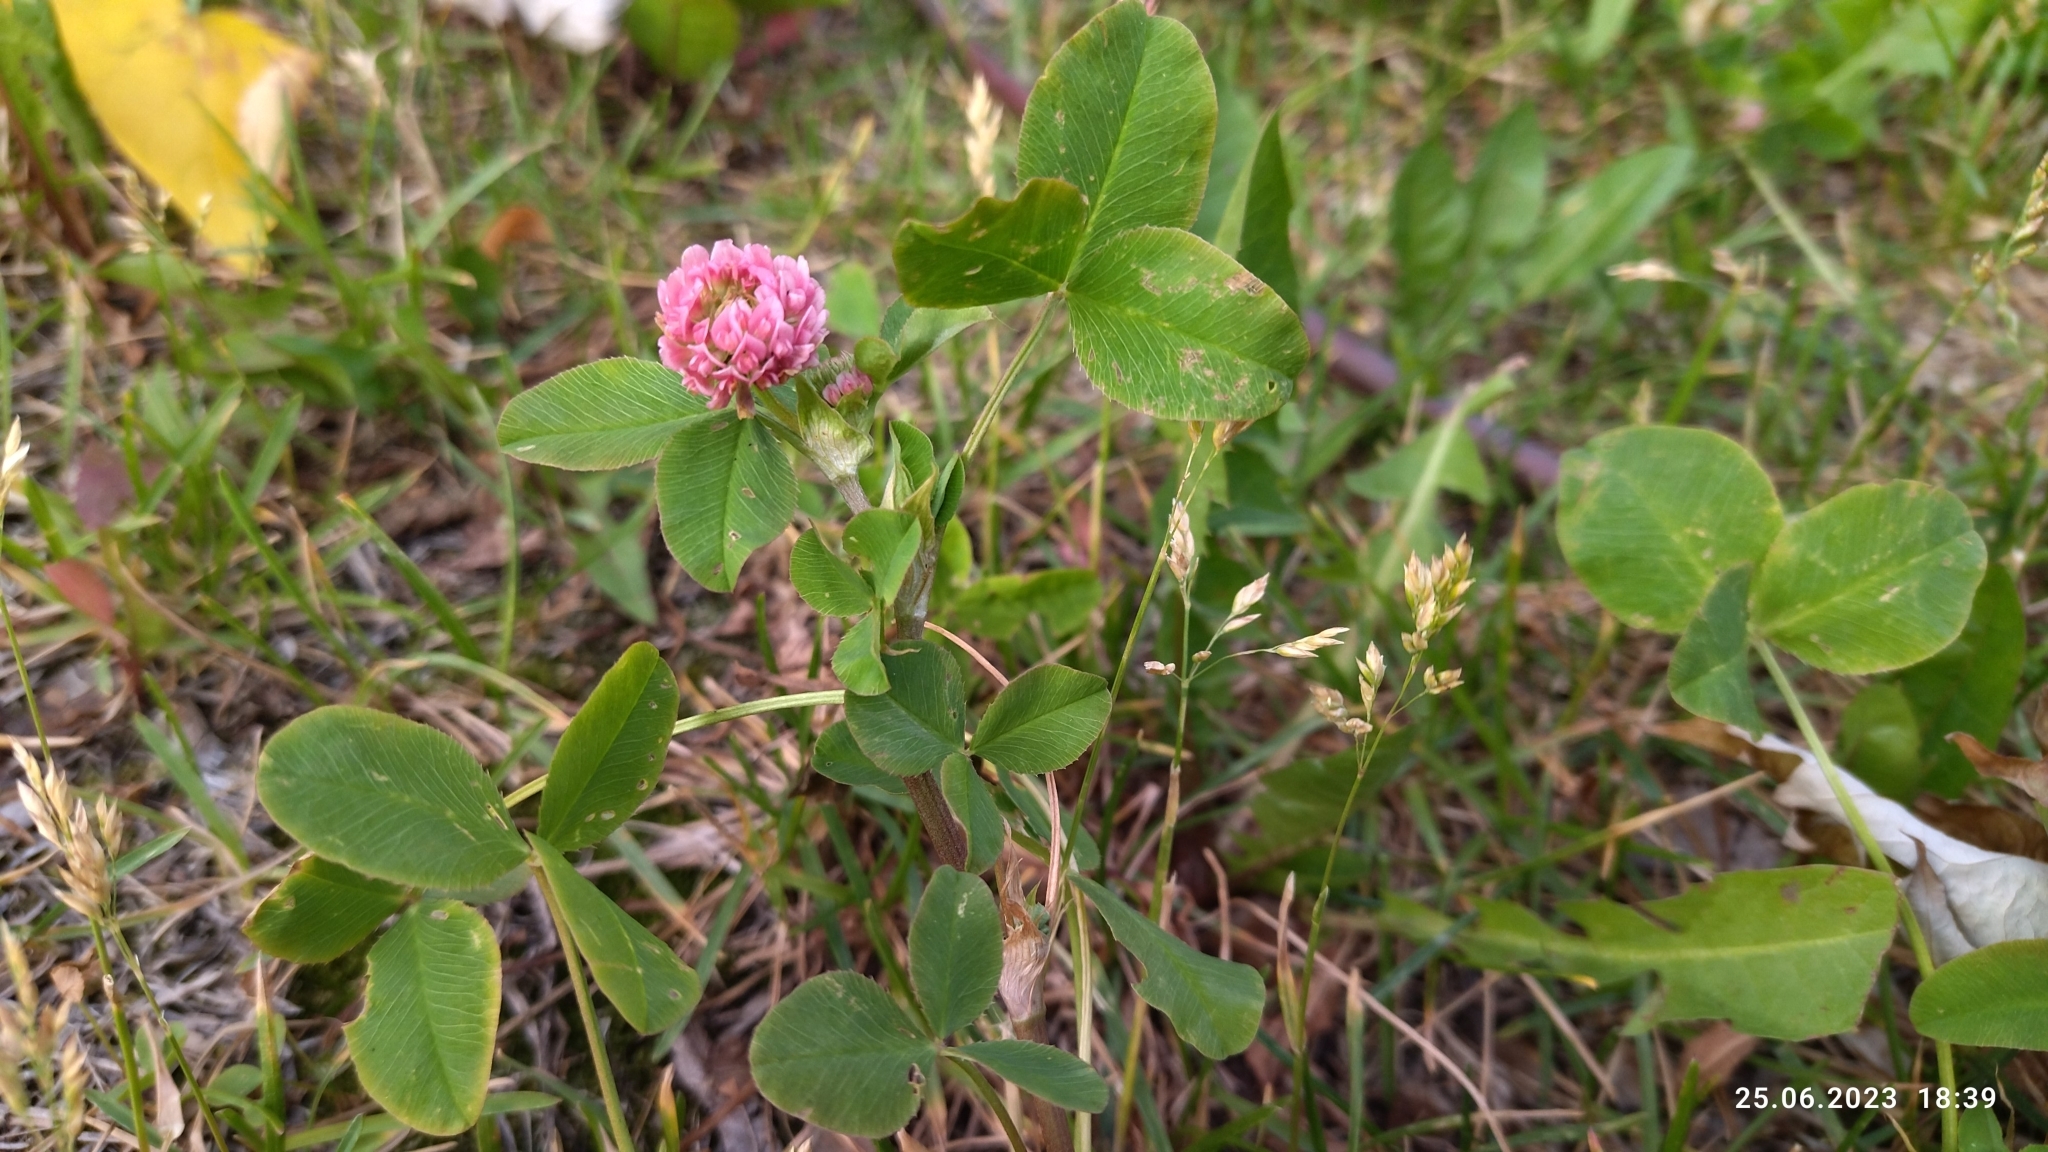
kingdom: Plantae
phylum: Tracheophyta
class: Magnoliopsida
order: Fabales
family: Fabaceae
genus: Trifolium
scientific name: Trifolium hybridum
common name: Alsike clover
